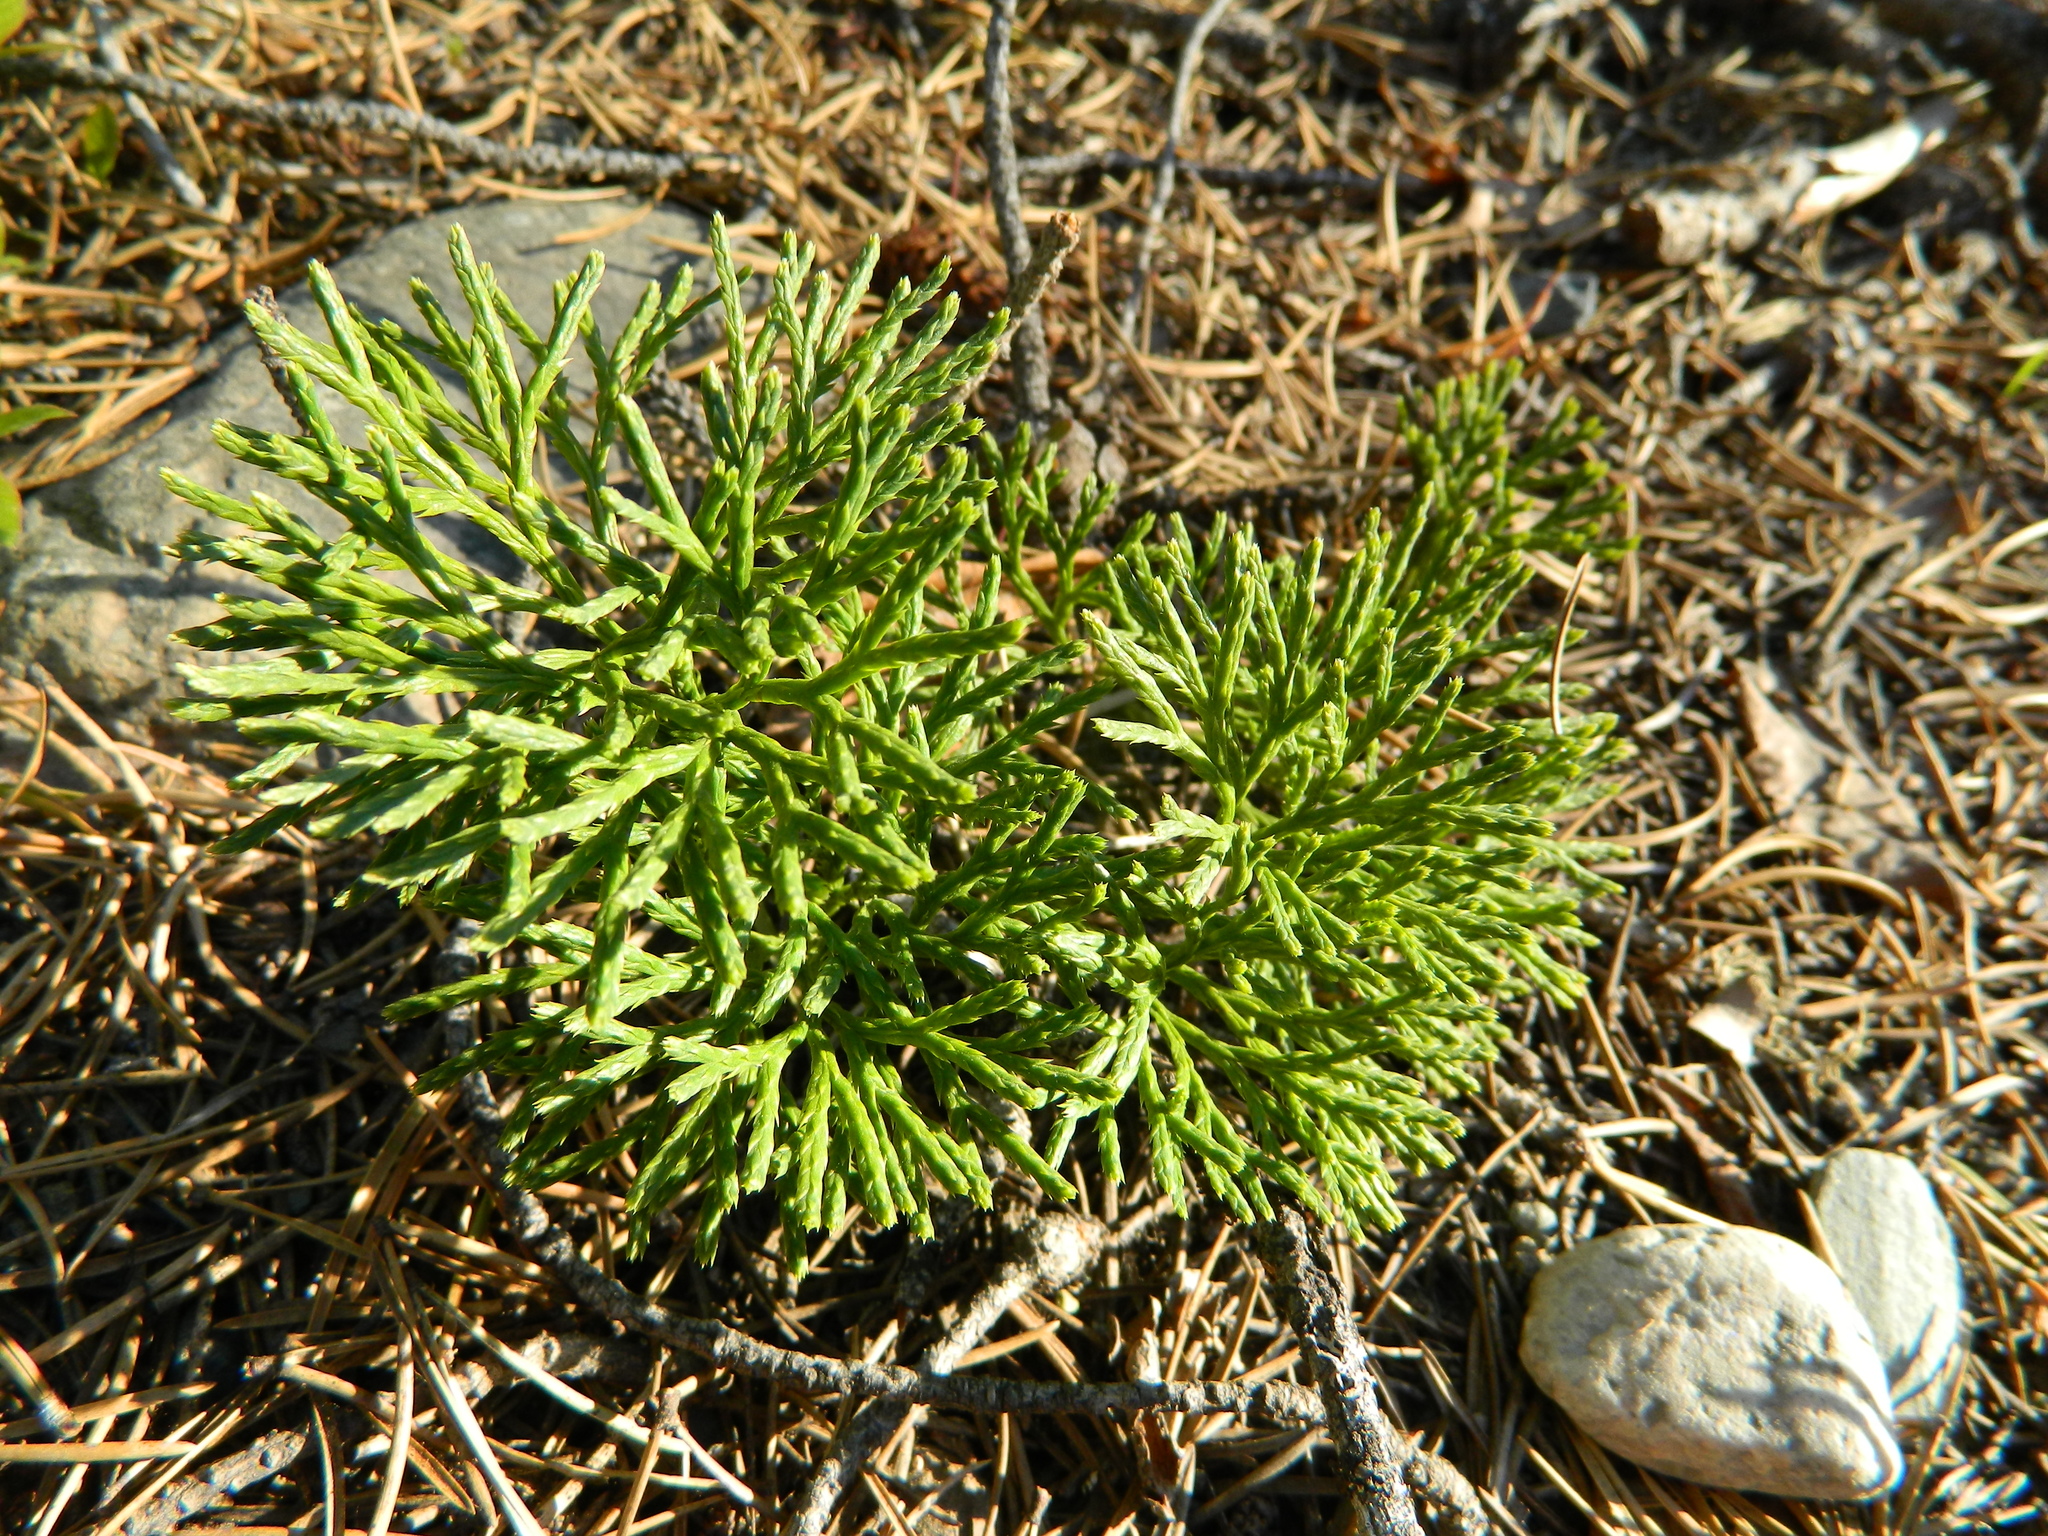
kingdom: Plantae
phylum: Tracheophyta
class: Lycopodiopsida
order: Lycopodiales
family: Lycopodiaceae
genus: Diphasiastrum
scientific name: Diphasiastrum tristachyum
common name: Blue ground-cedar
